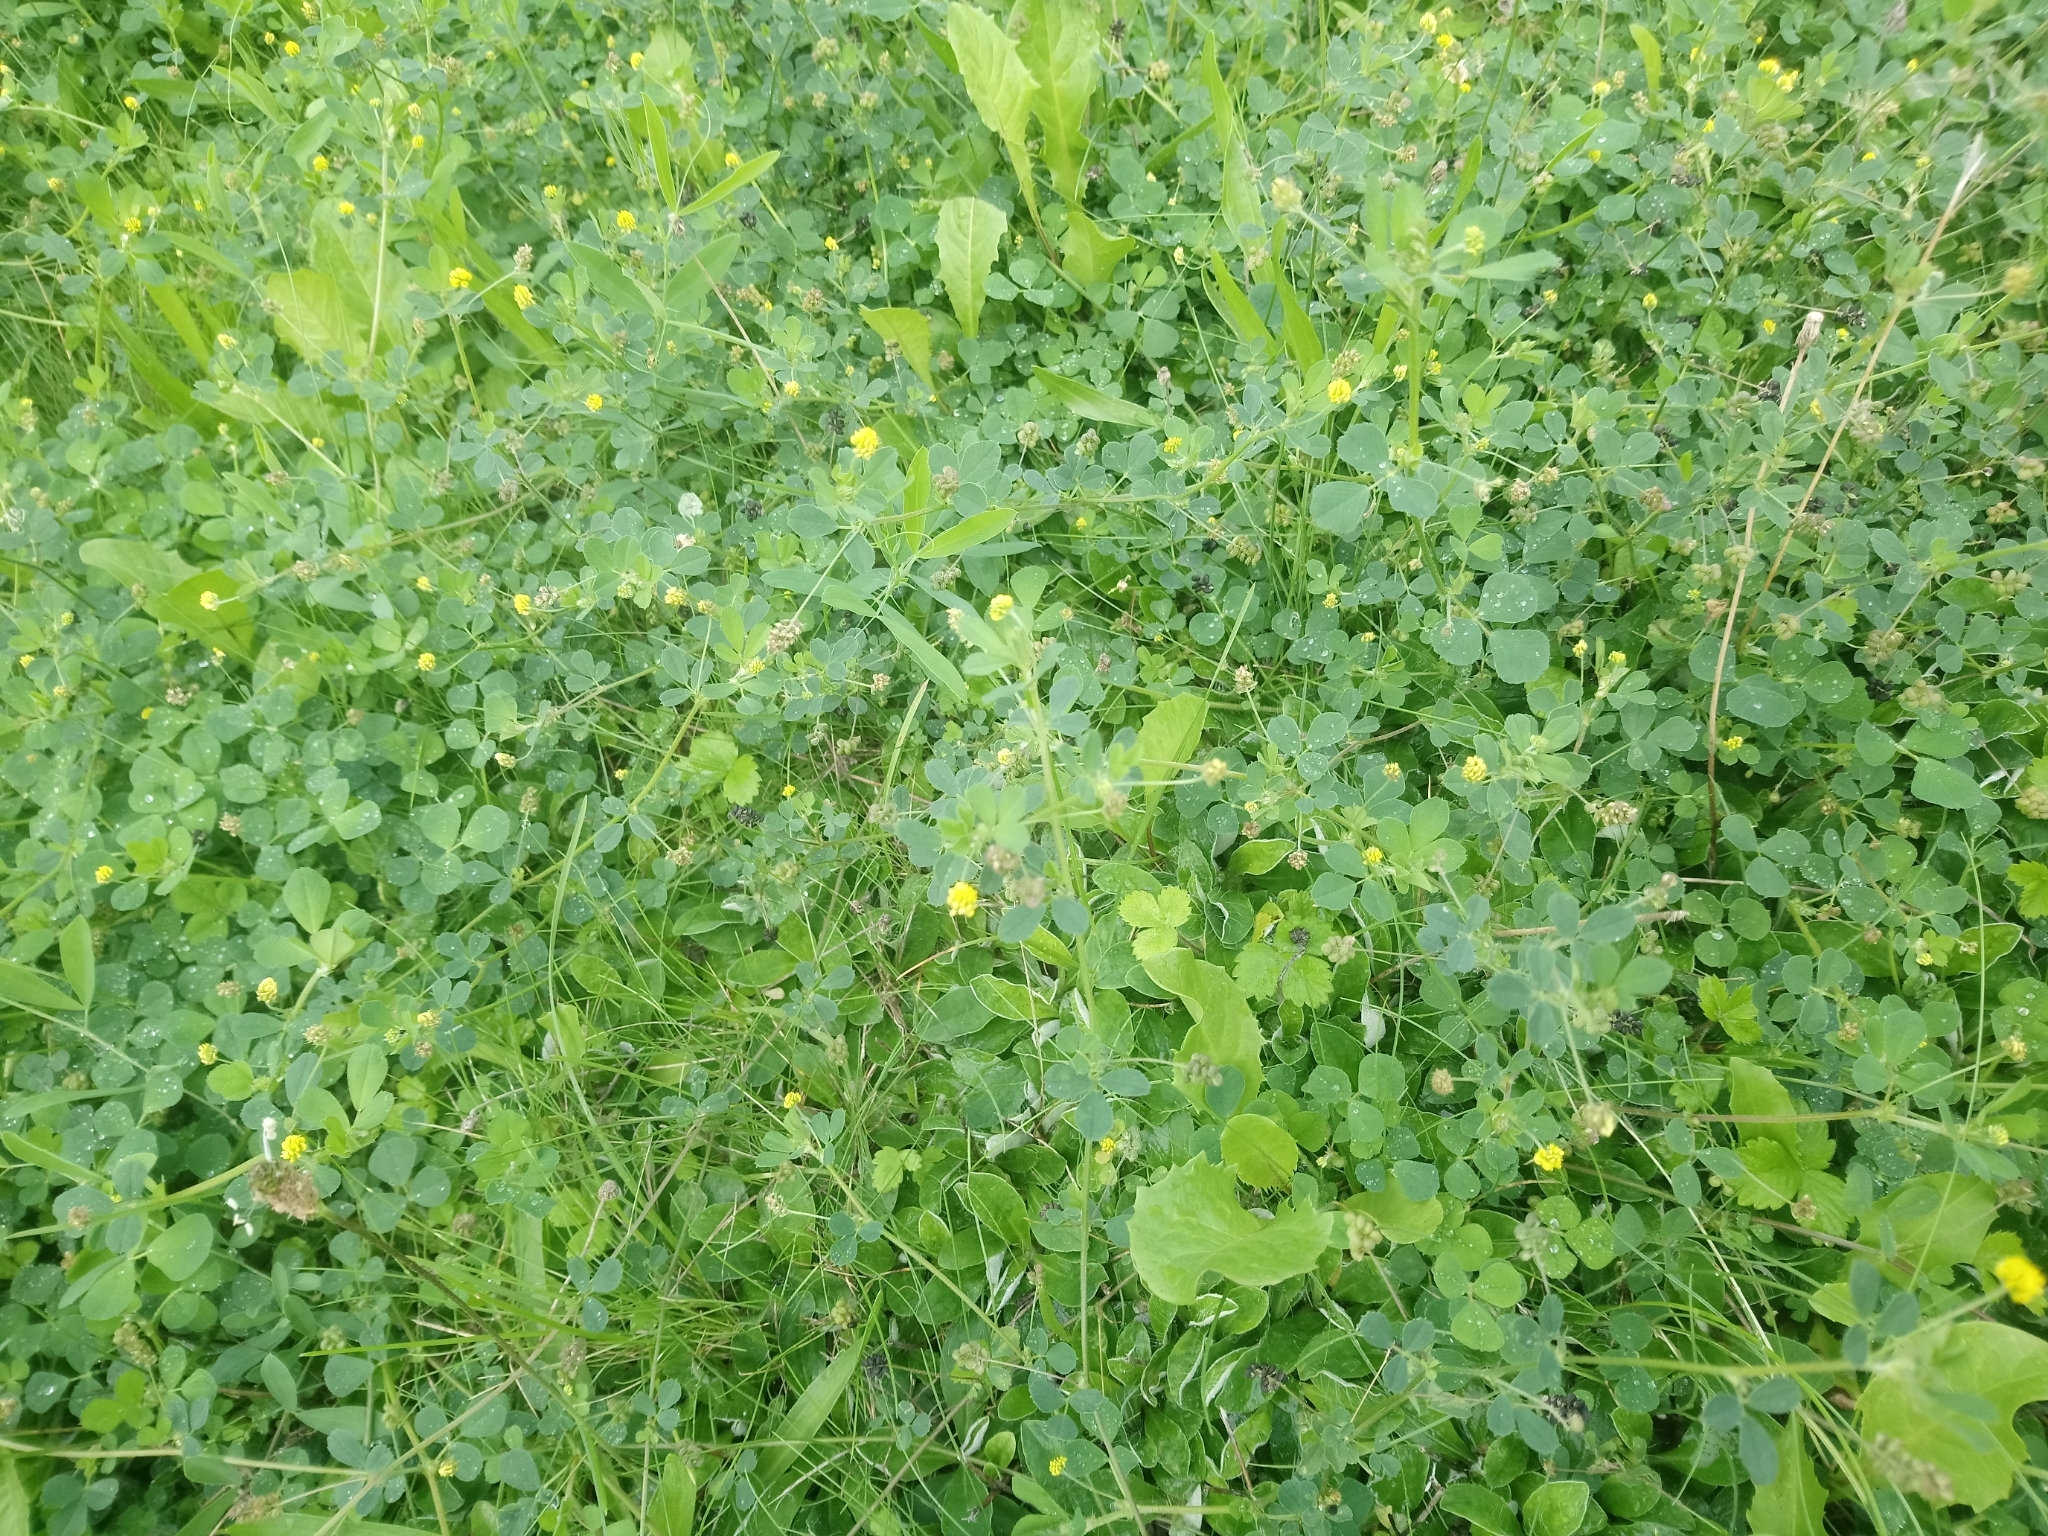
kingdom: Plantae
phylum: Tracheophyta
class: Magnoliopsida
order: Fabales
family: Fabaceae
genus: Medicago
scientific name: Medicago lupulina
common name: Black medick
